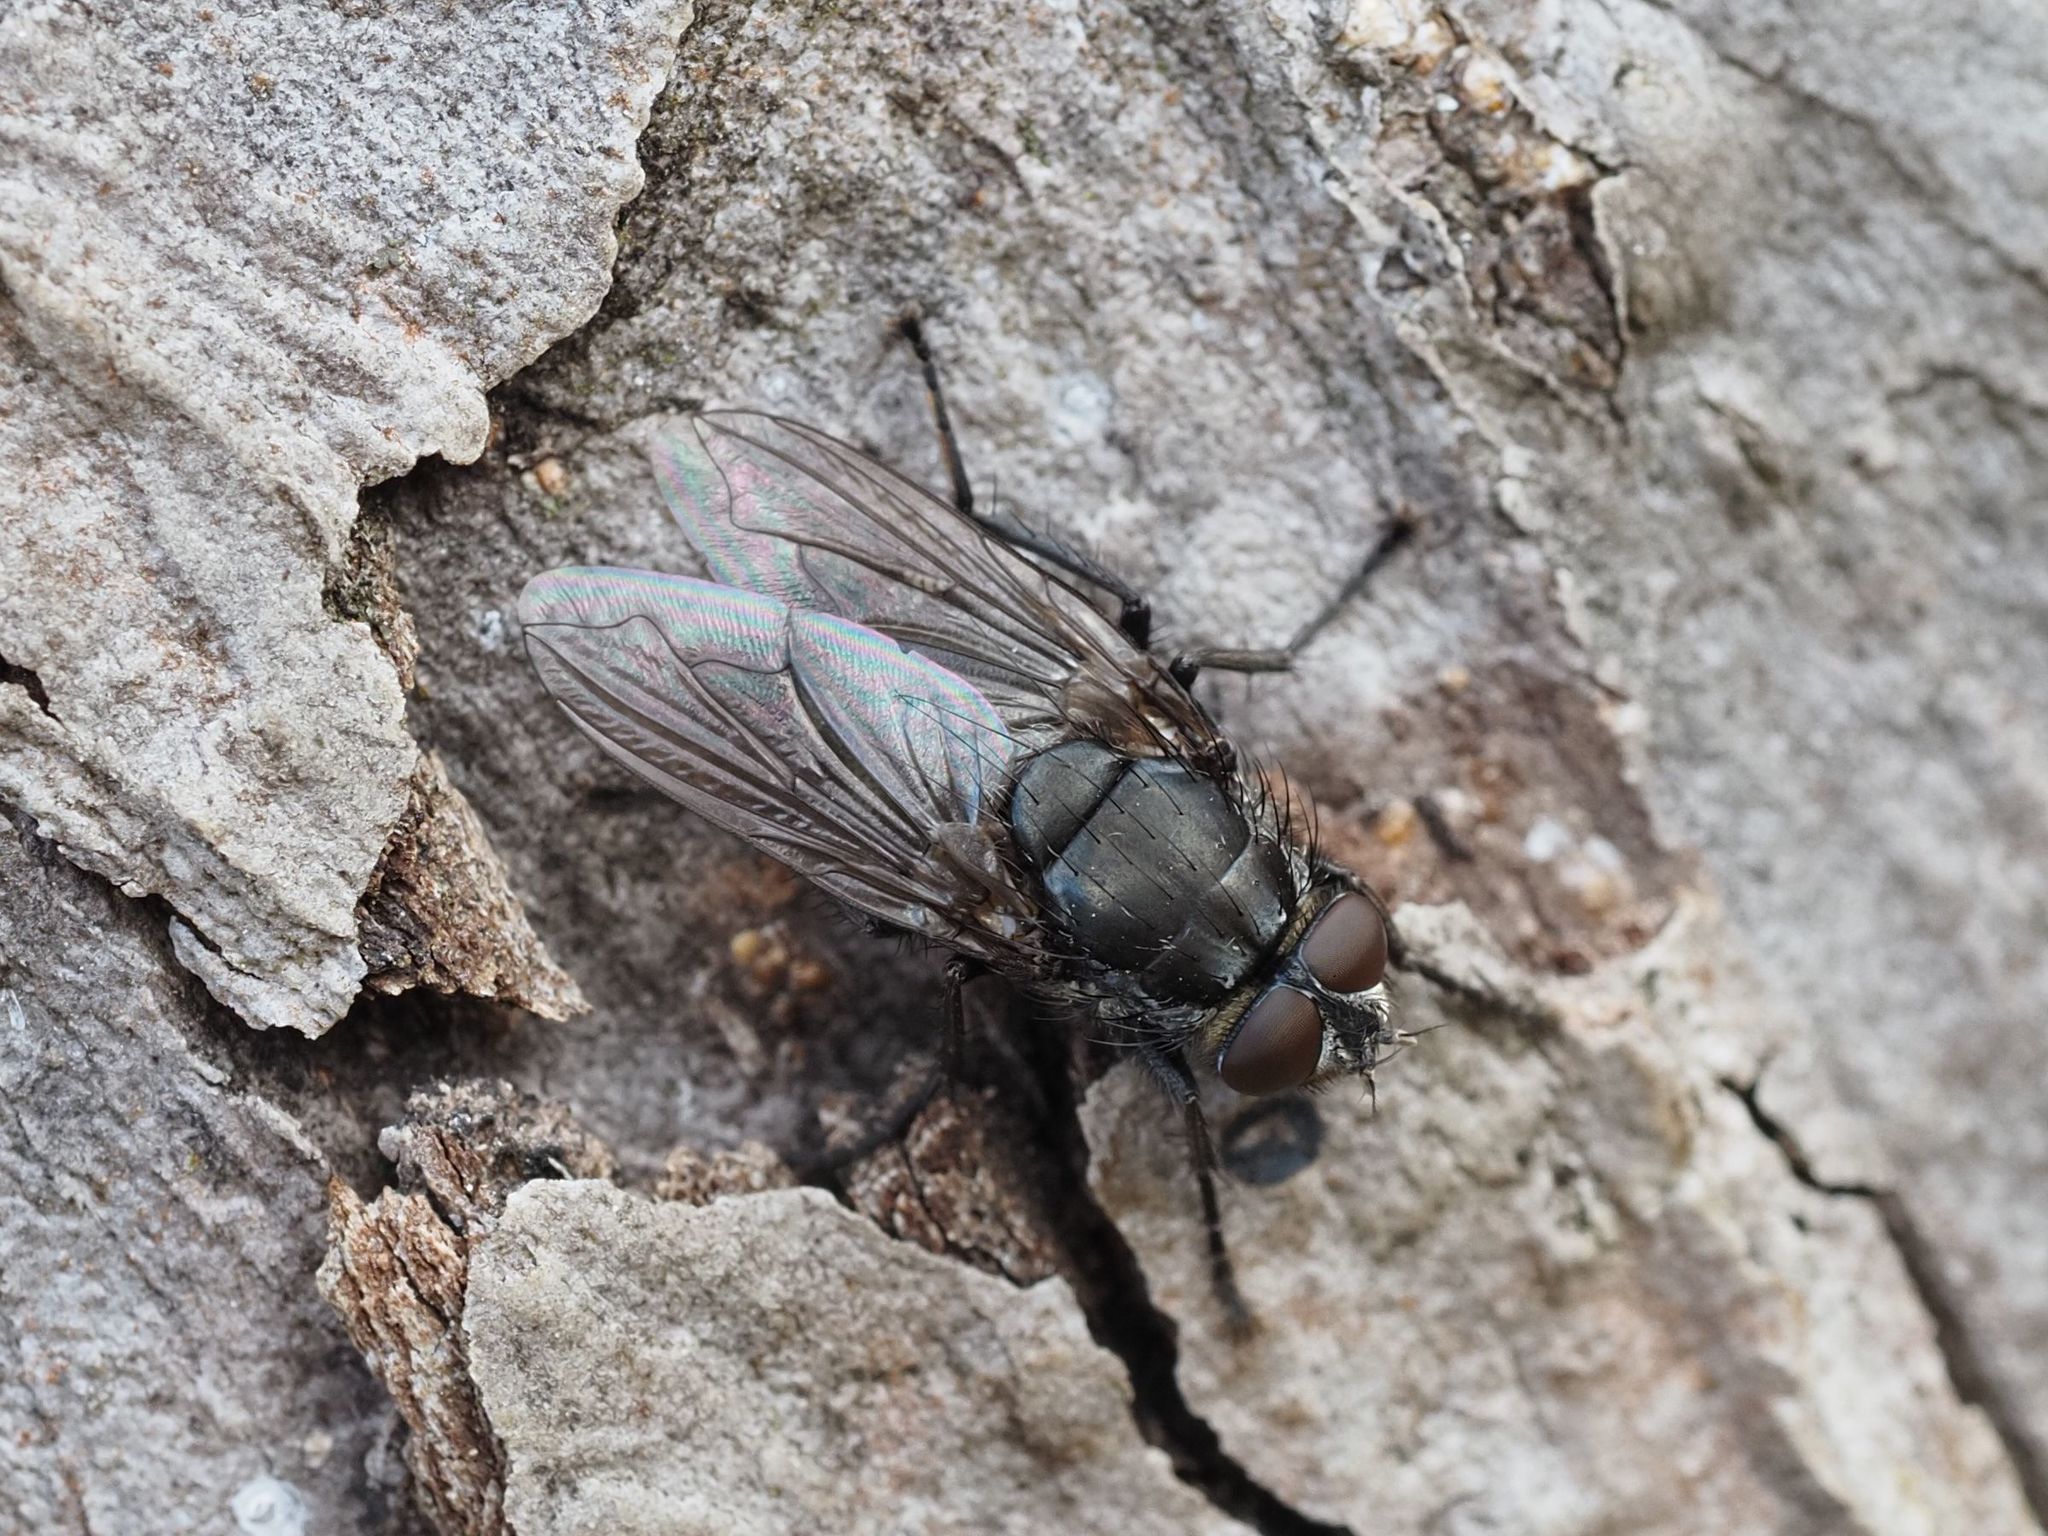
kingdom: Animalia
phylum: Arthropoda
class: Insecta
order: Diptera
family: Polleniidae
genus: Pollenia
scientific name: Pollenia vagabunda
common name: Vagabund cluster fly
